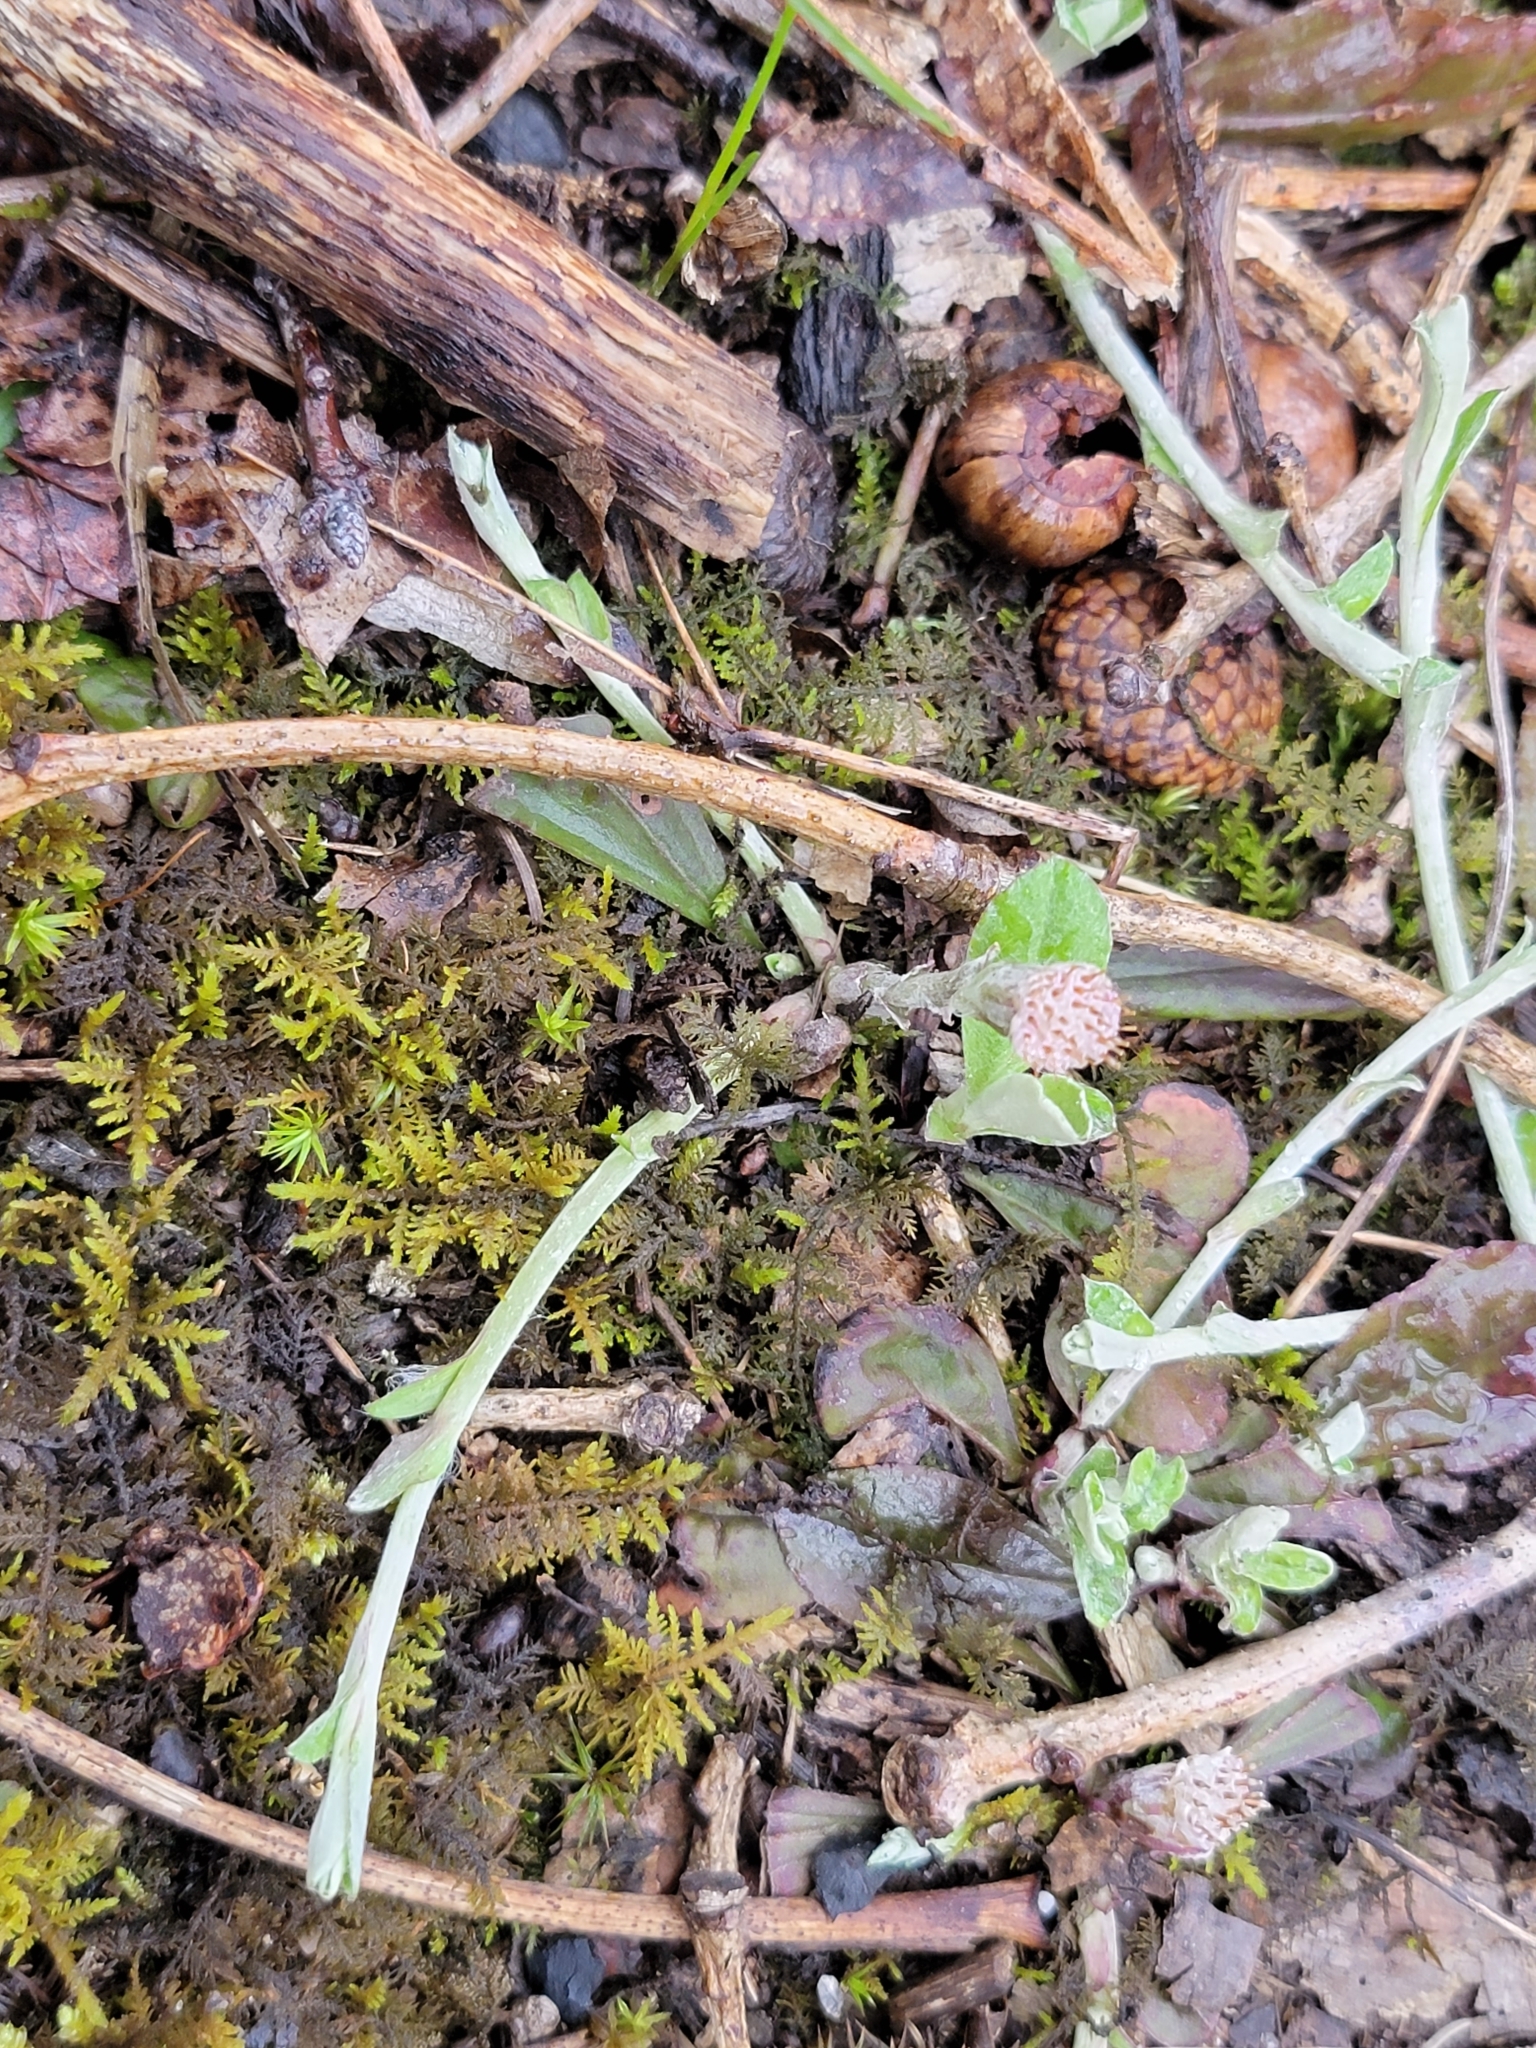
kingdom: Plantae
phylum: Tracheophyta
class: Magnoliopsida
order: Asterales
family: Asteraceae
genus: Antennaria
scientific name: Antennaria solitaria
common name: Single-head pussytoes
